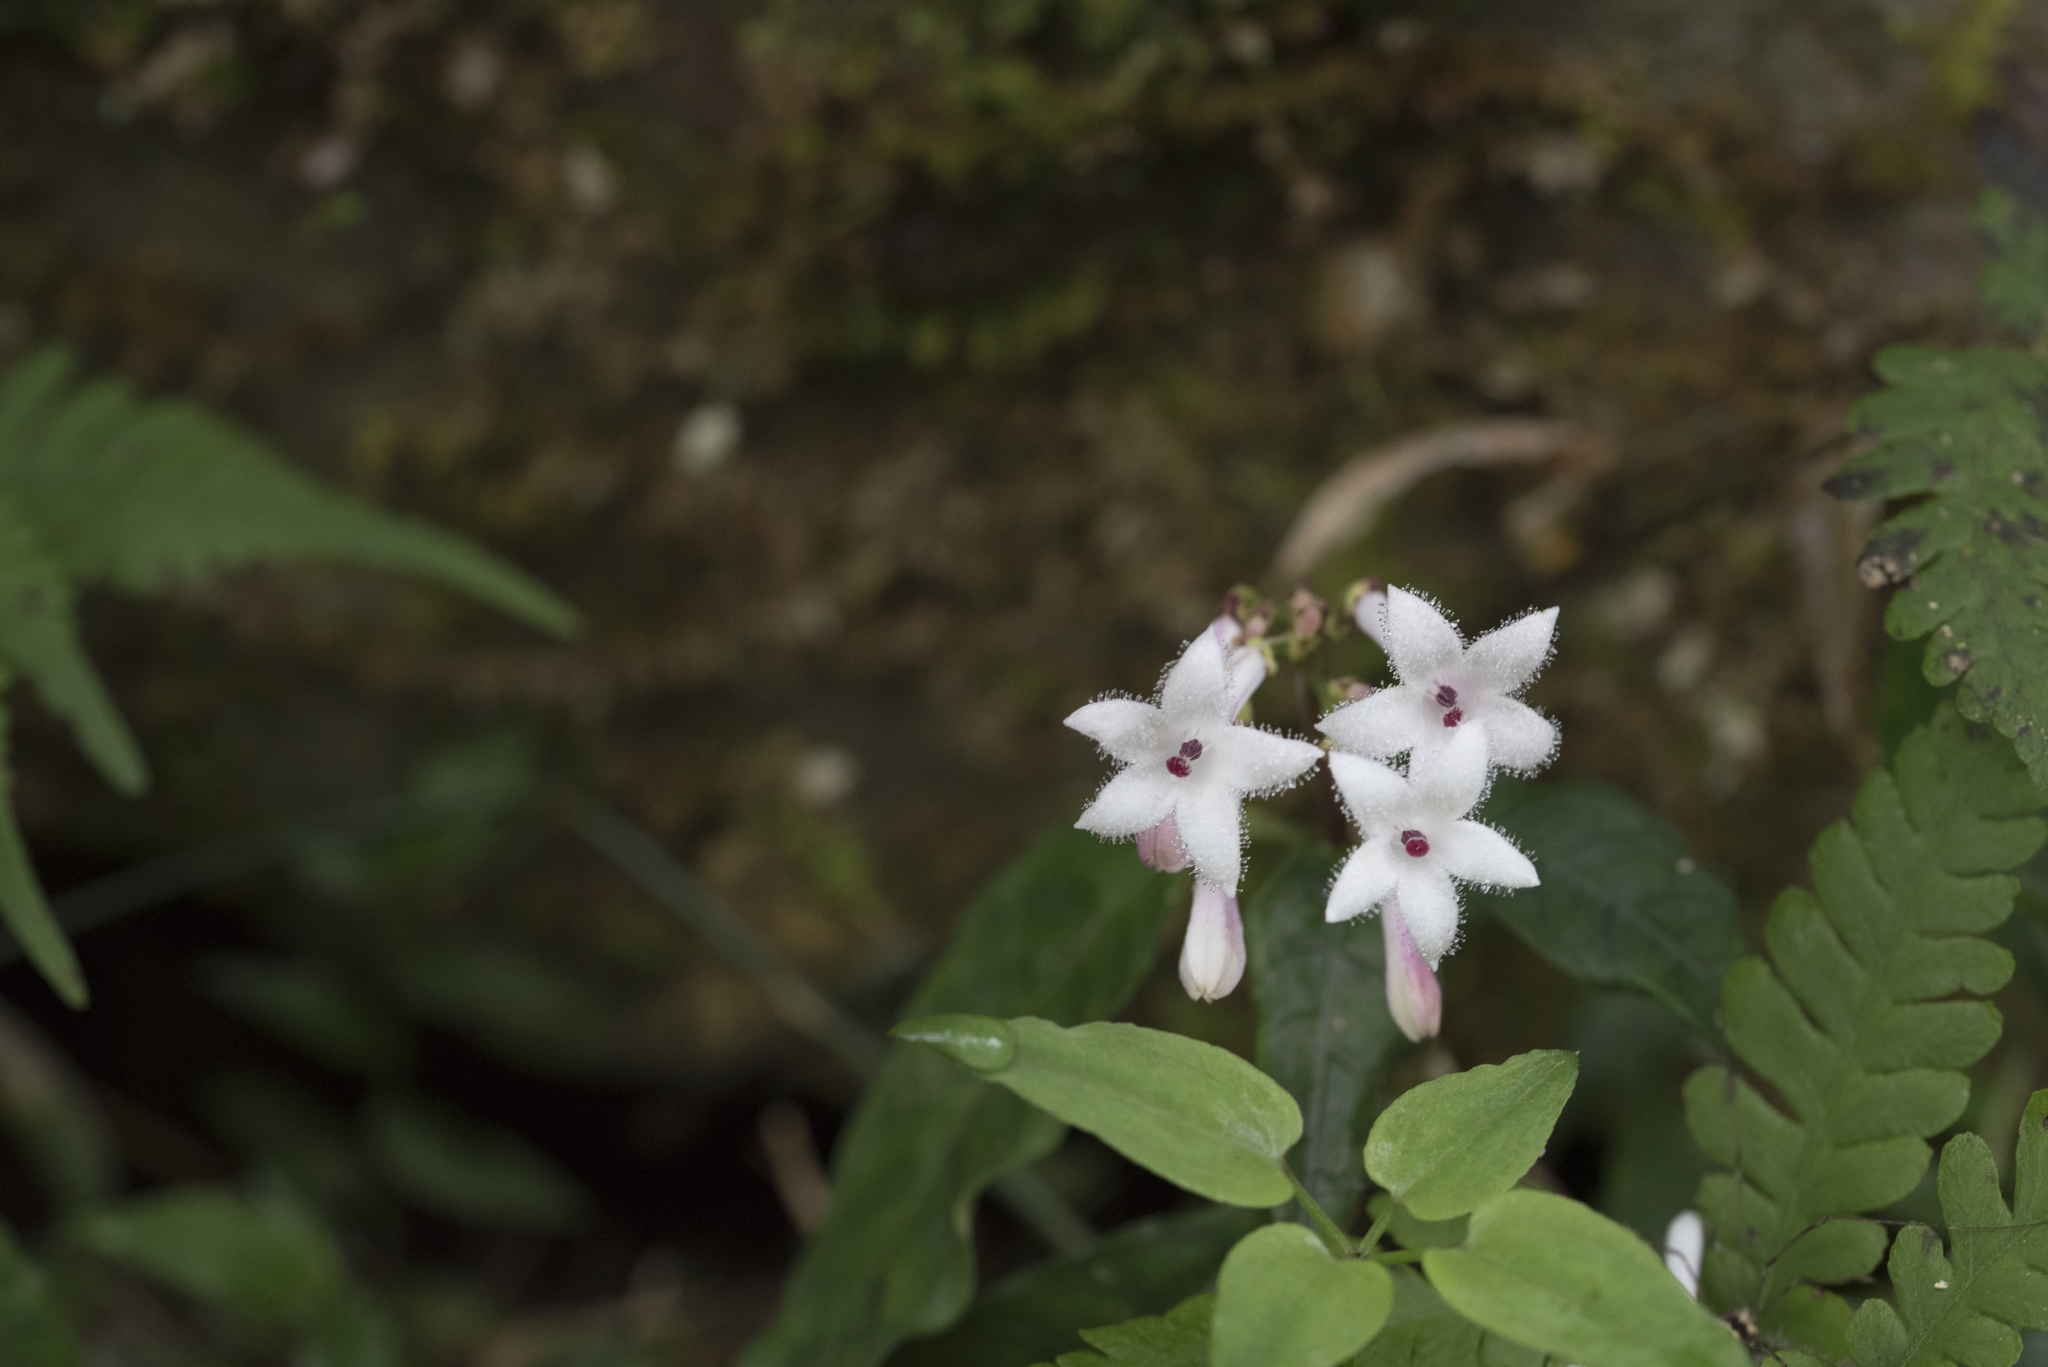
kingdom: Plantae
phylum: Tracheophyta
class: Magnoliopsida
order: Gentianales
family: Rubiaceae
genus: Ophiorrhiza
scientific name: Ophiorrhiza japonica
